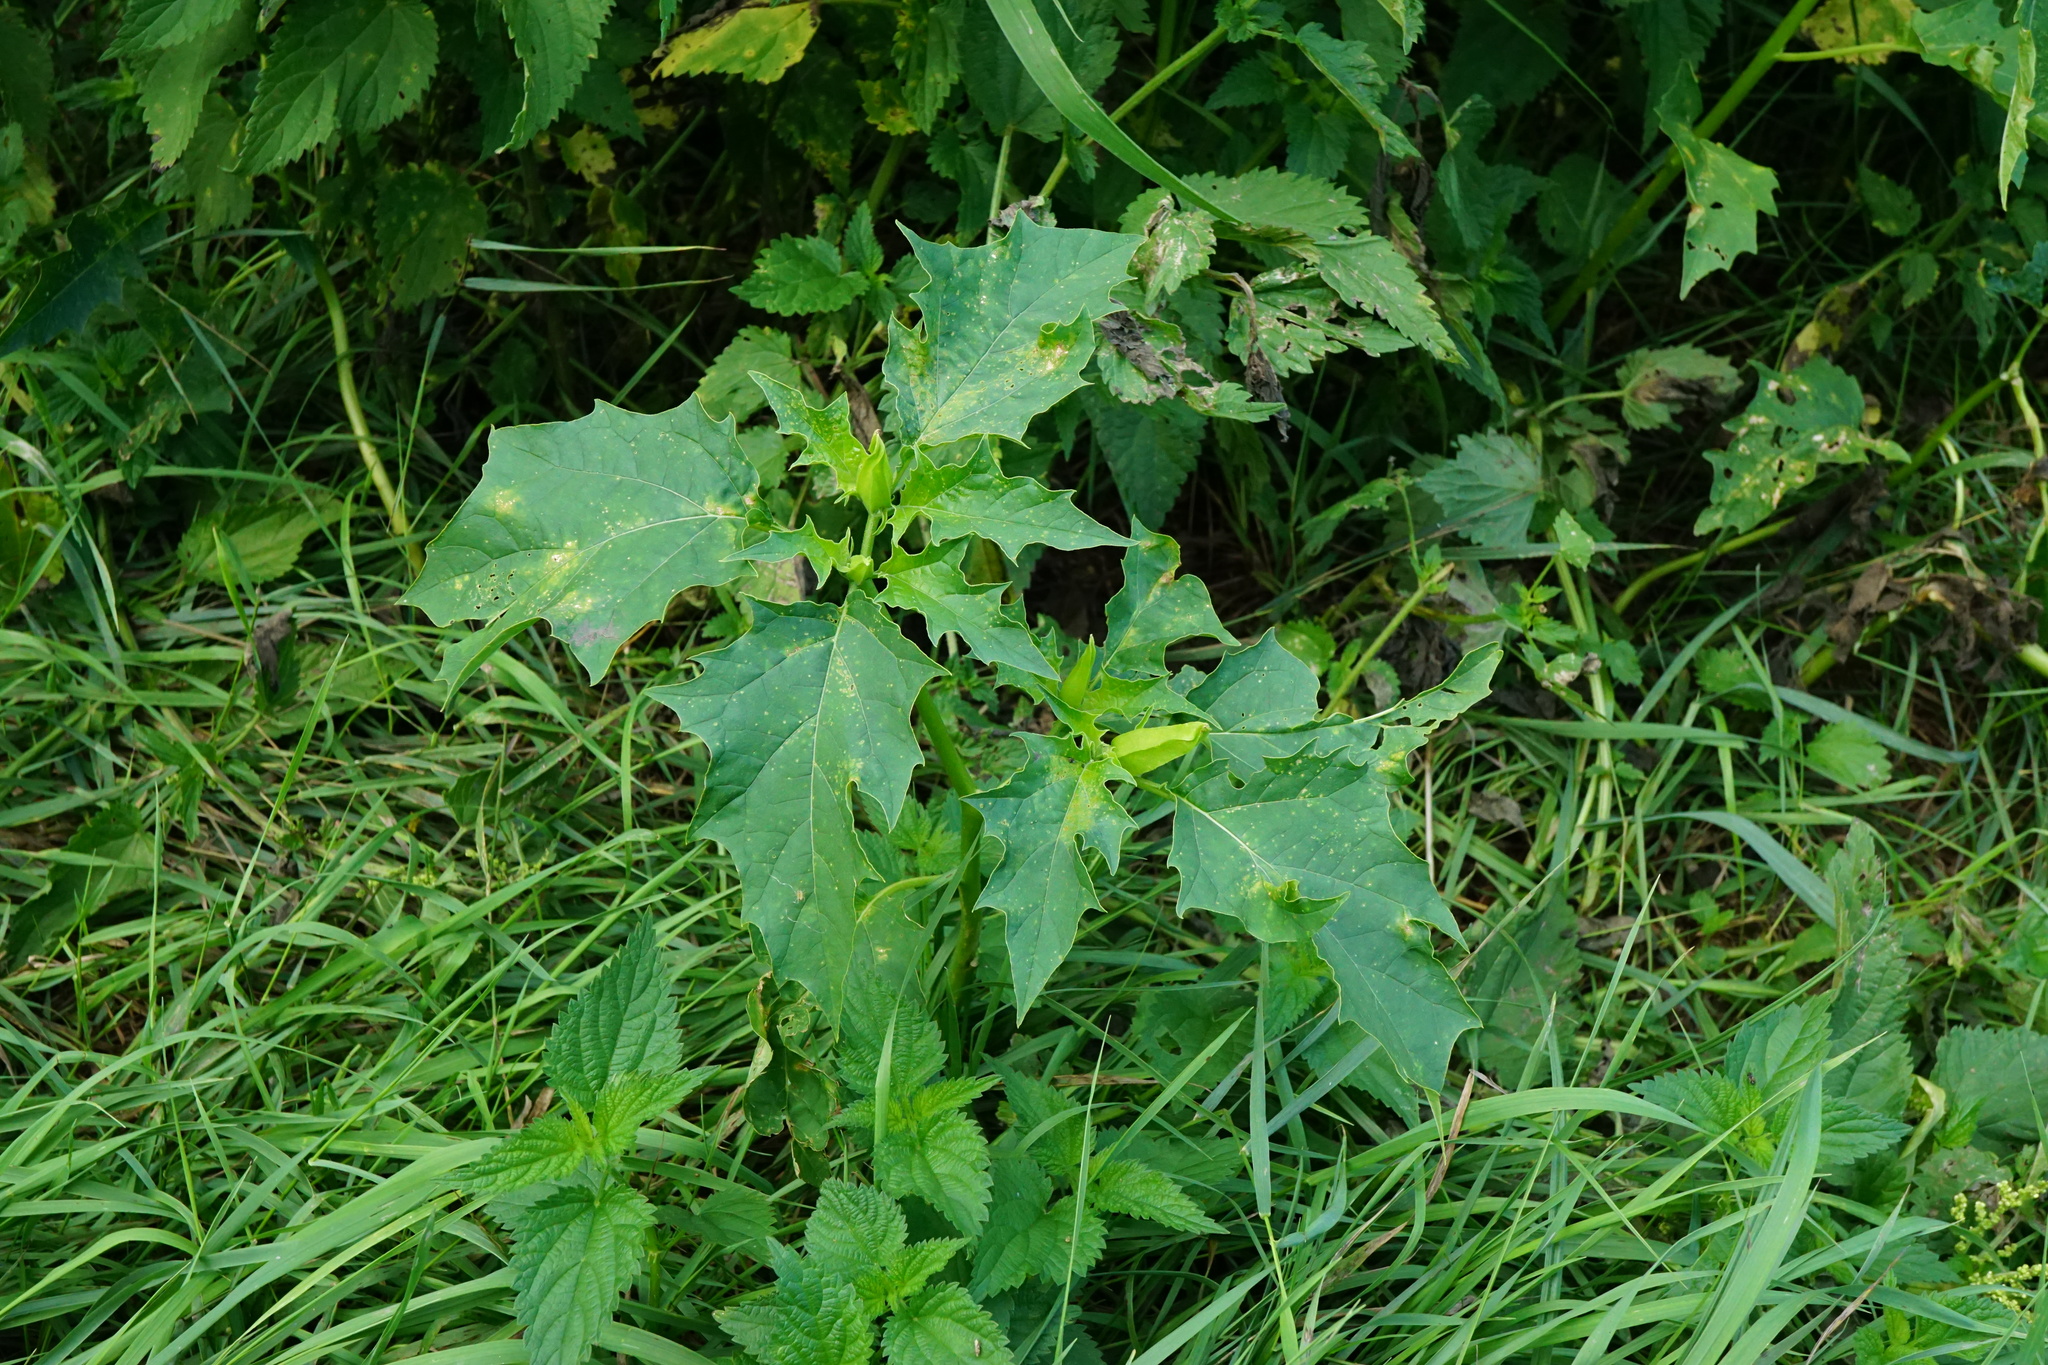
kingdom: Plantae
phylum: Tracheophyta
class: Magnoliopsida
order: Solanales
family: Solanaceae
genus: Datura
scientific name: Datura stramonium
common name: Thorn-apple
